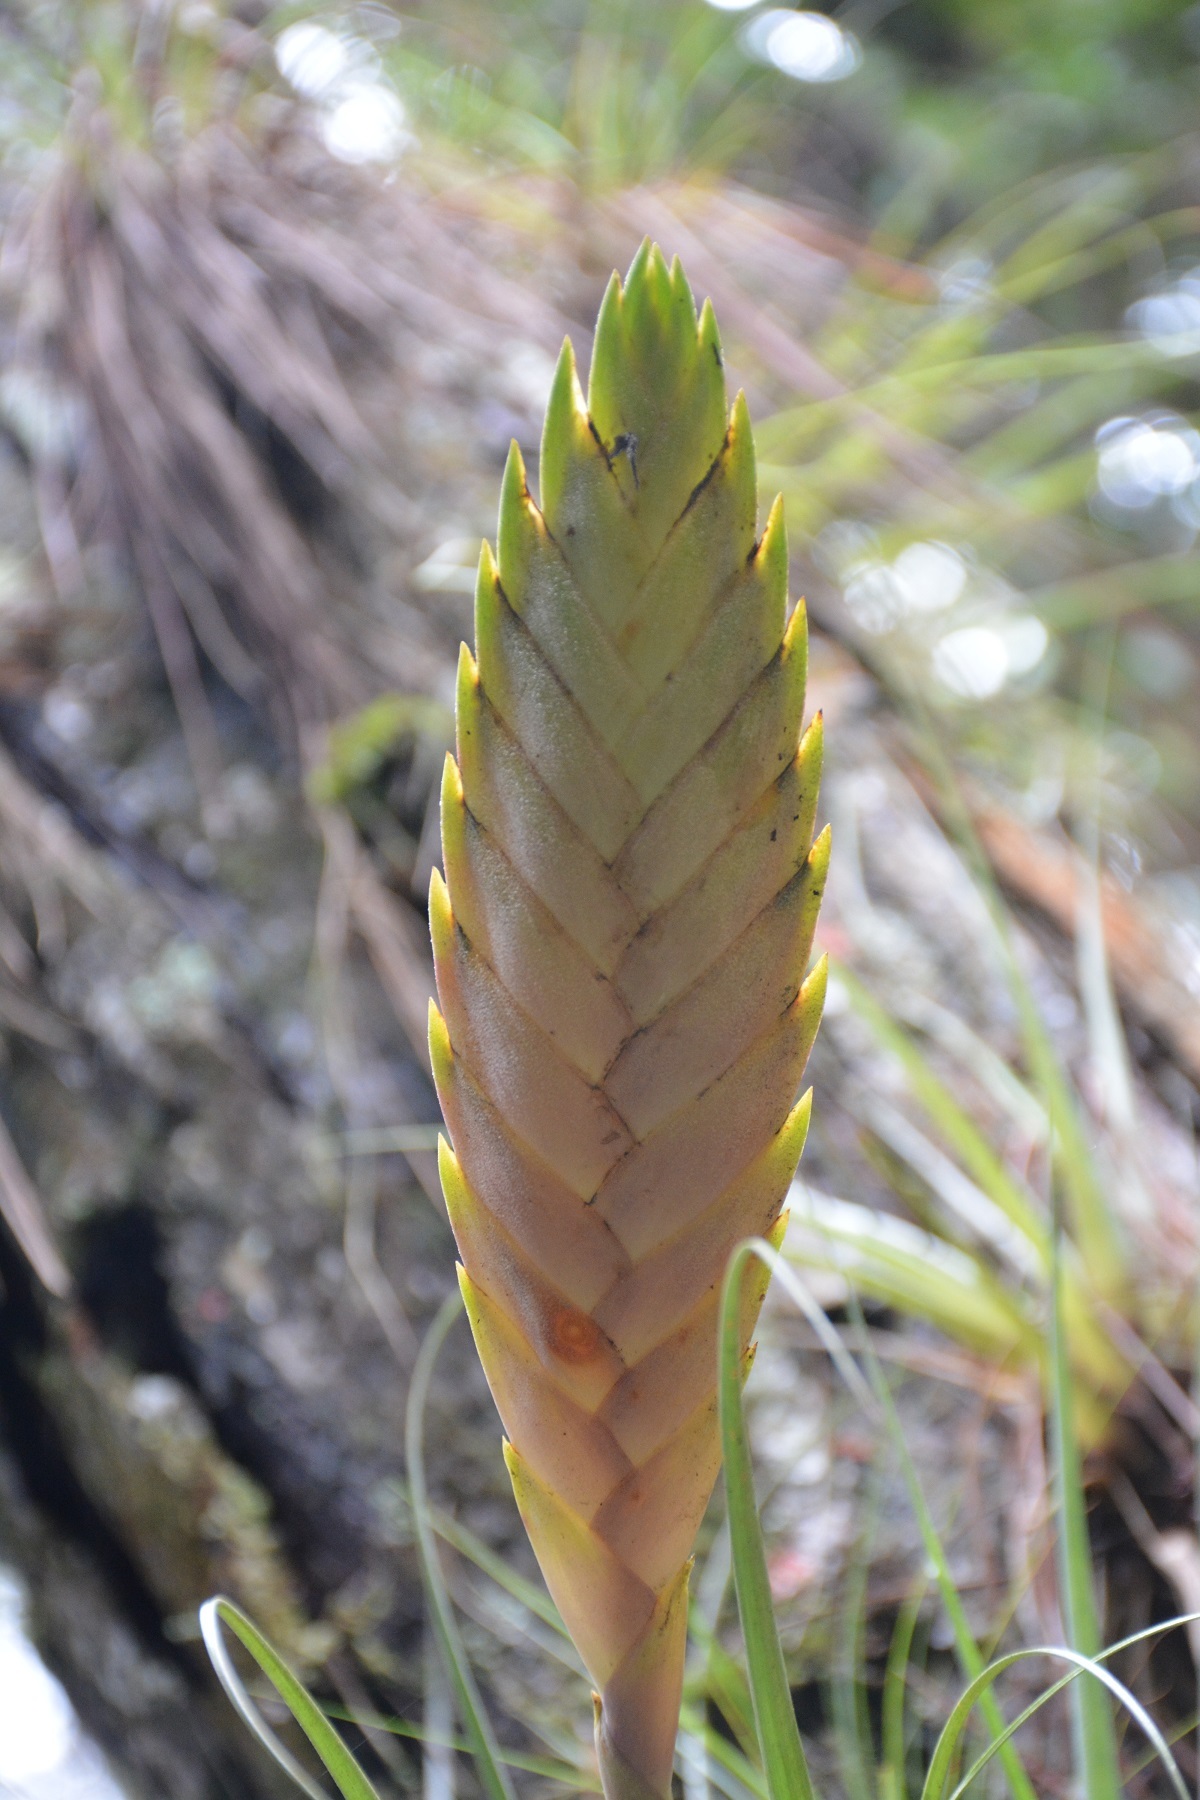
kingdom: Plantae
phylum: Tracheophyta
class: Liliopsida
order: Poales
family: Bromeliaceae
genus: Tillandsia
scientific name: Tillandsia lampropoda
